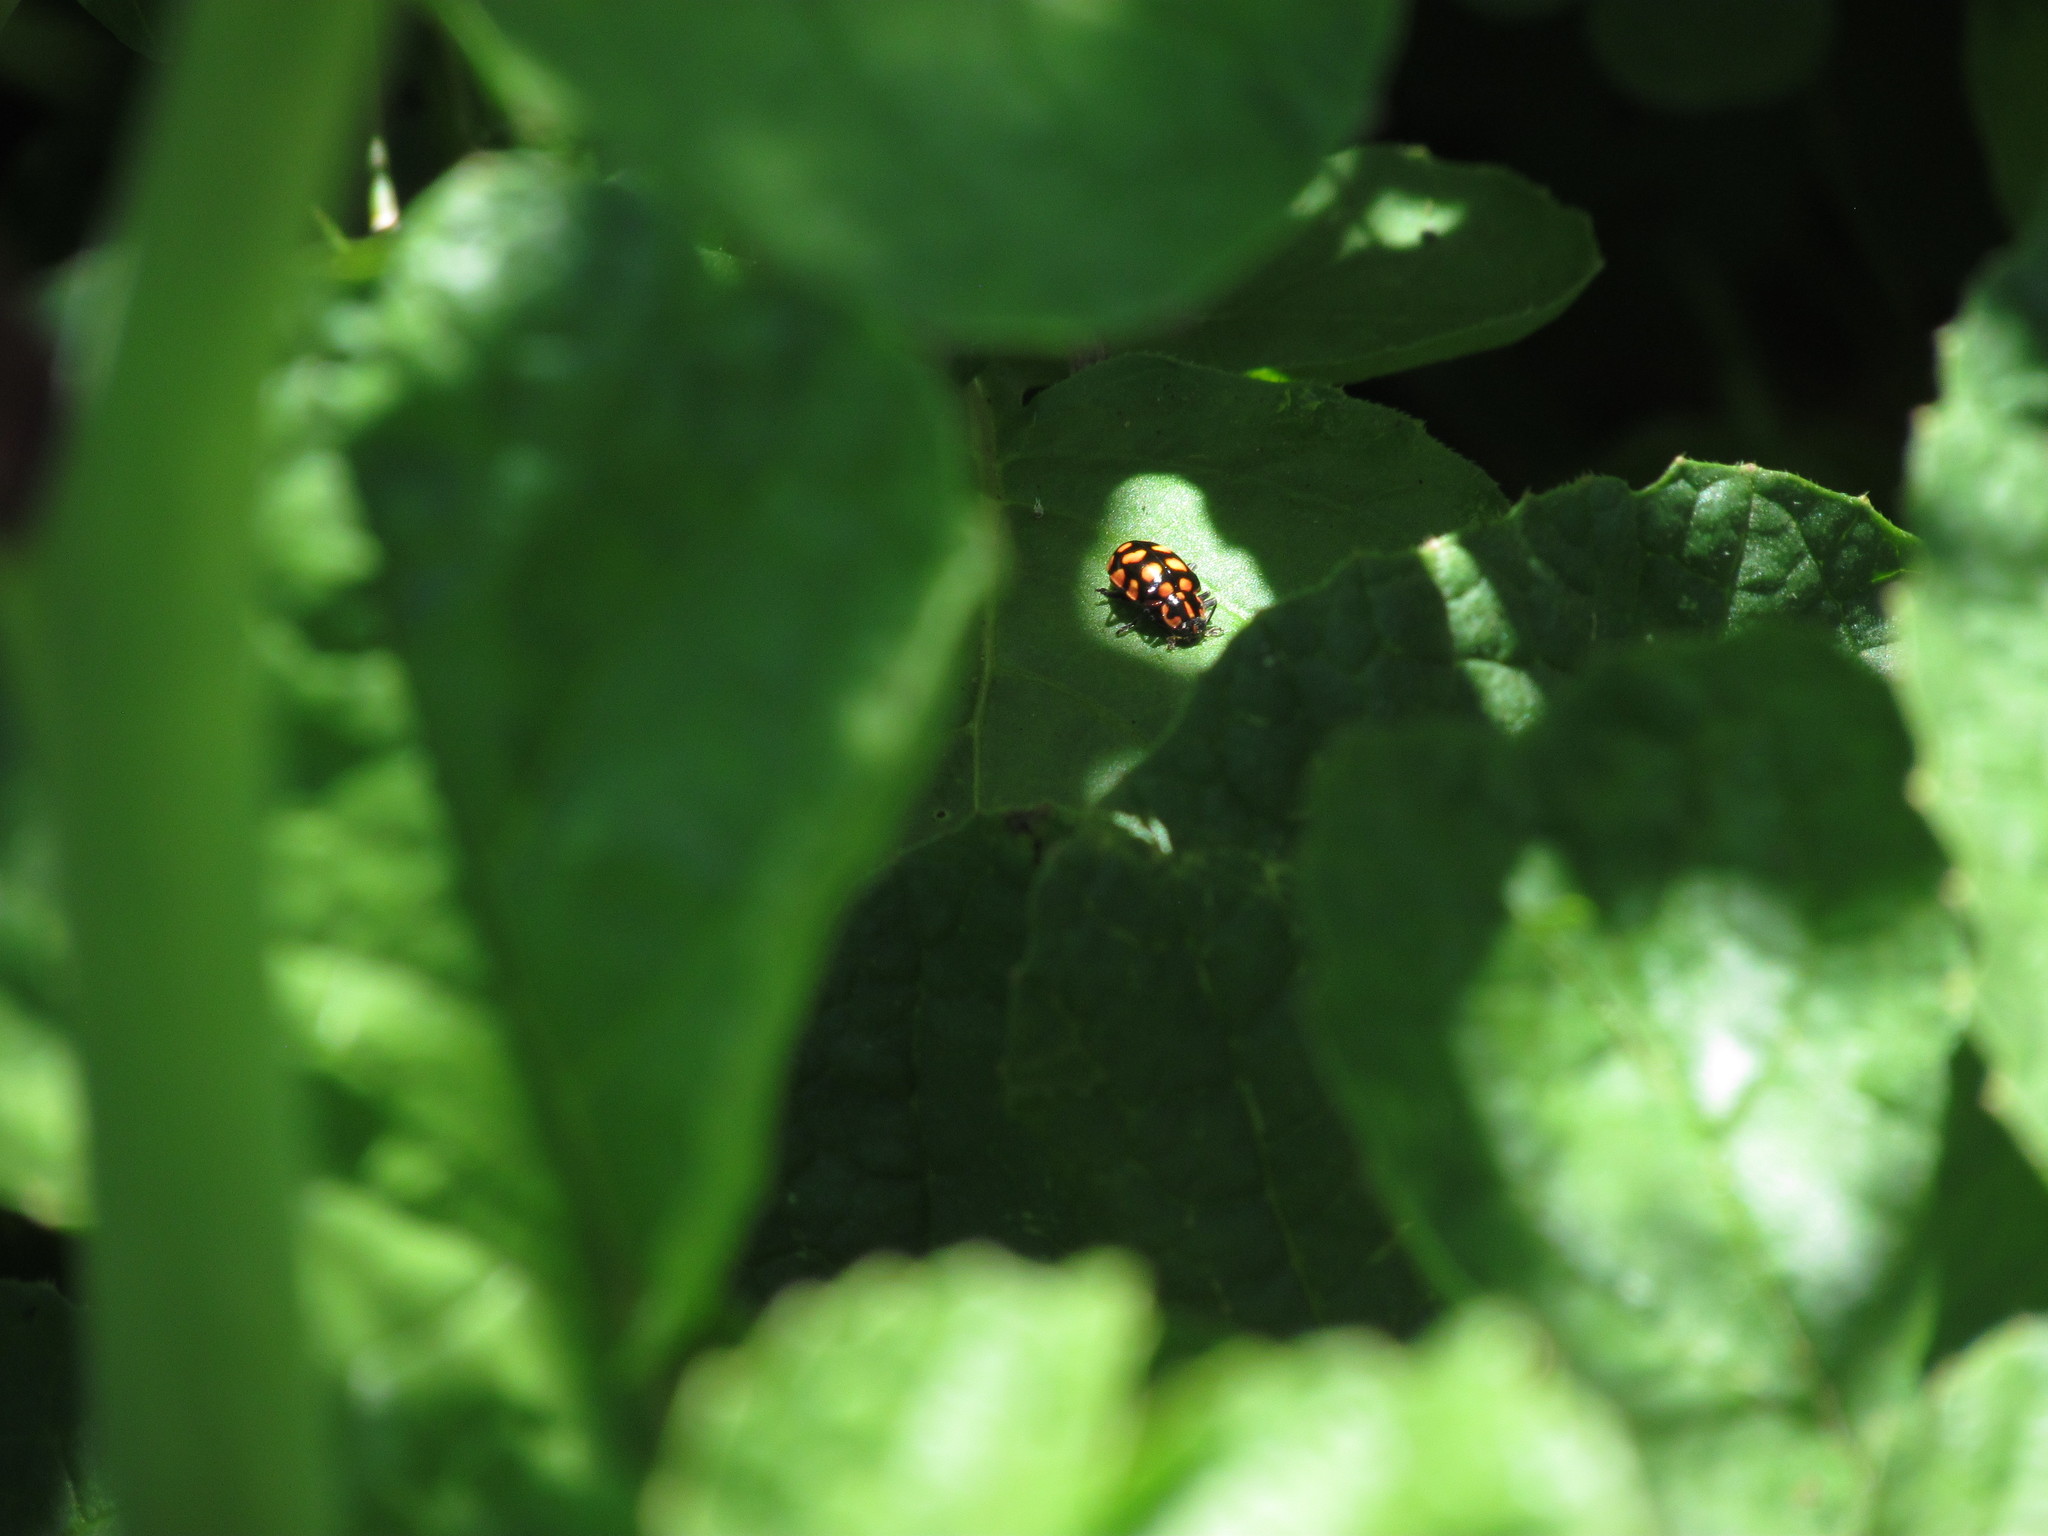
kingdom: Animalia
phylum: Arthropoda
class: Insecta
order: Coleoptera
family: Coccinellidae
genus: Coleomegilla
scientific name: Coleomegilla
